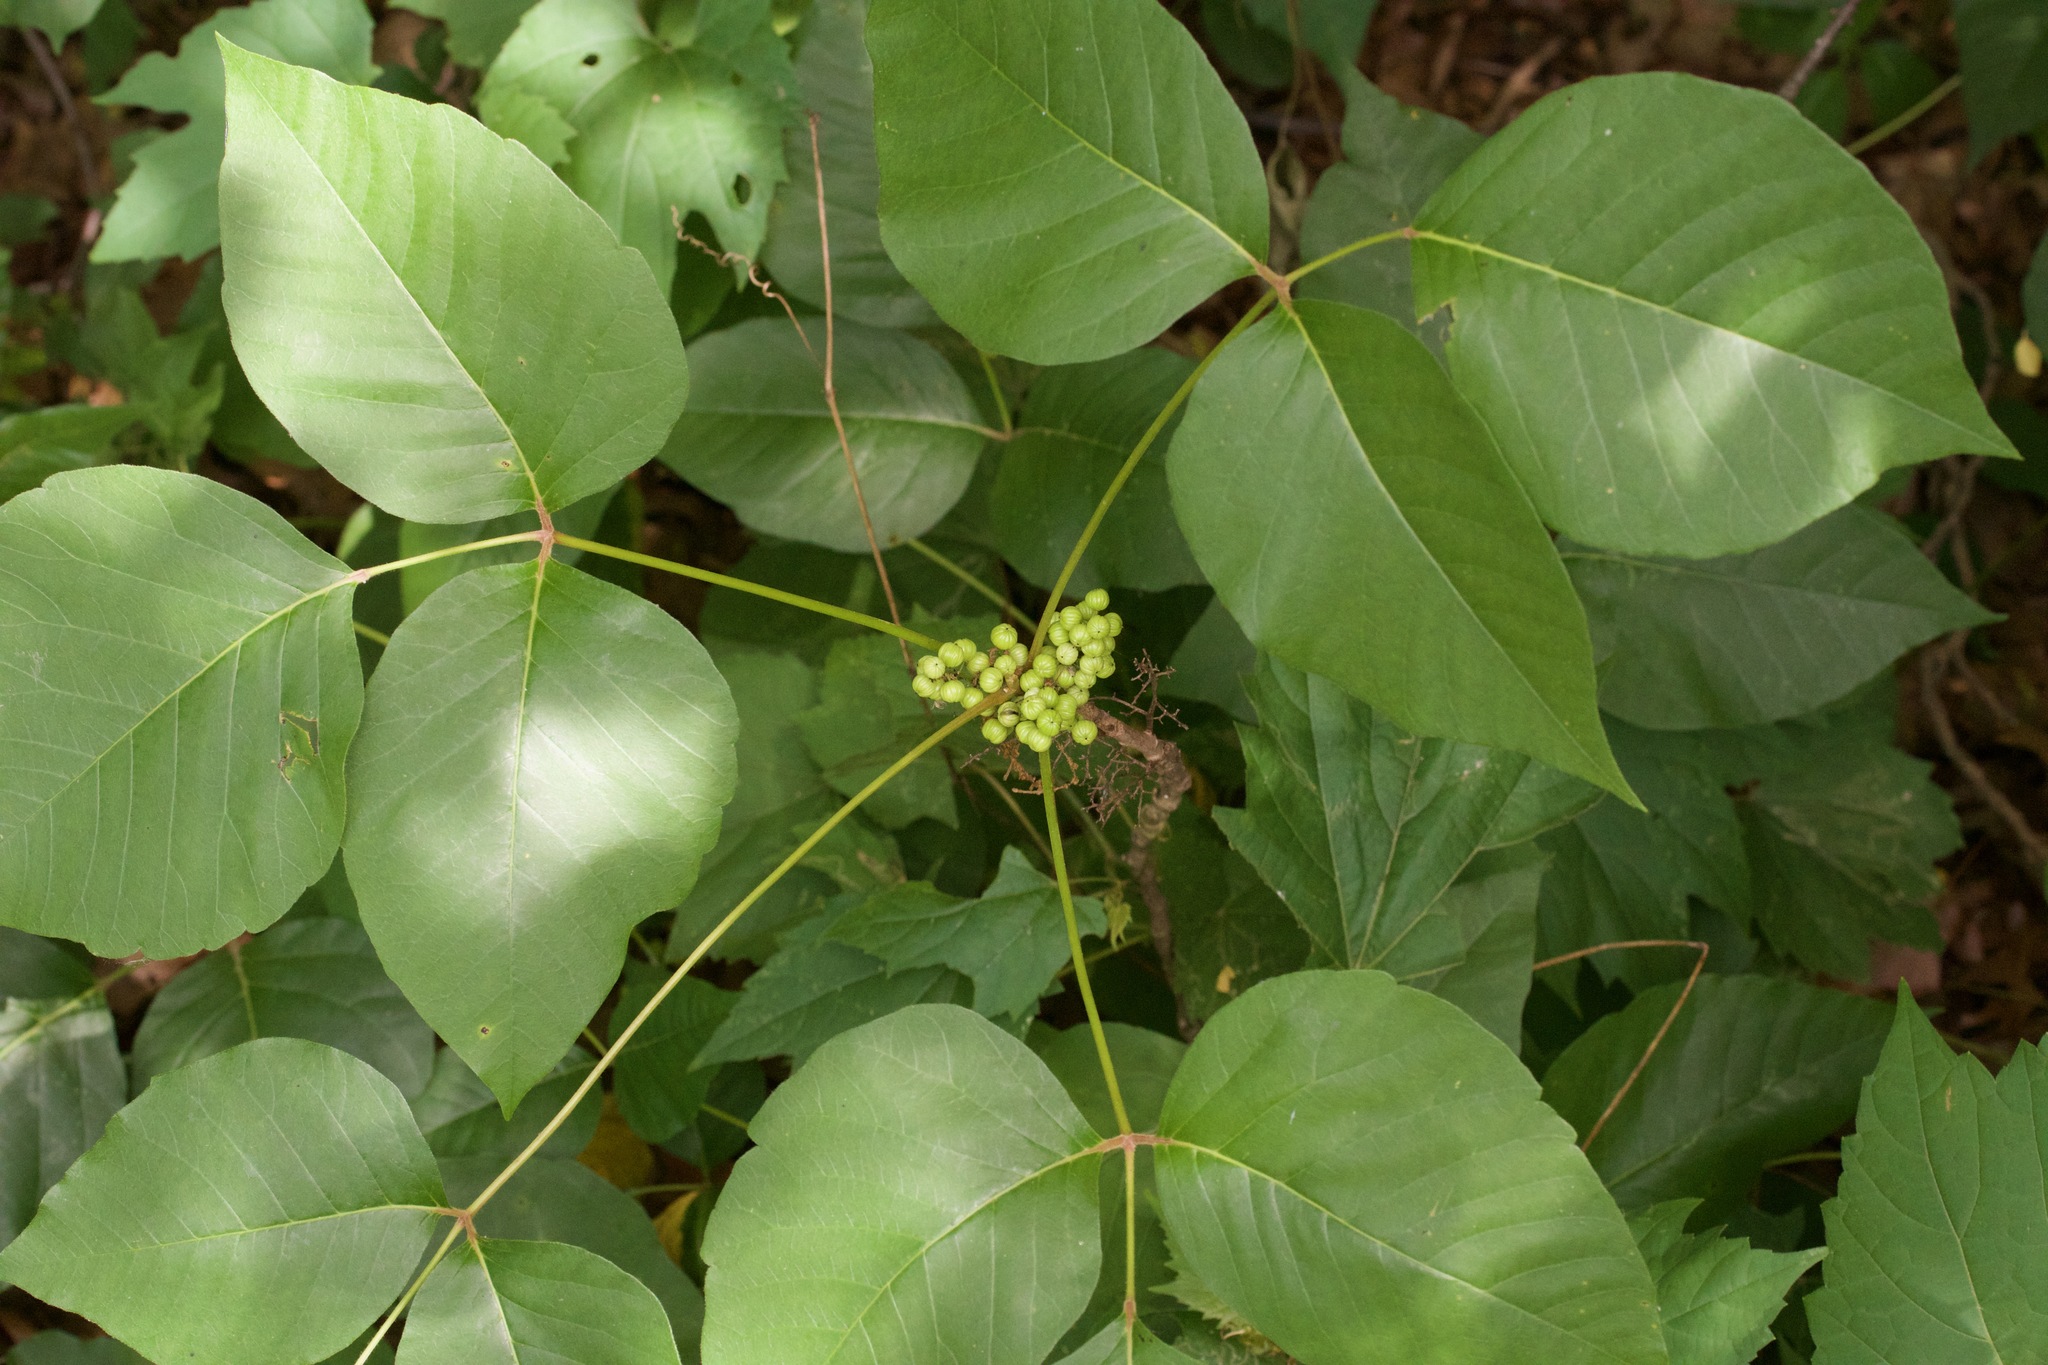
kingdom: Plantae
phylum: Tracheophyta
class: Magnoliopsida
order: Sapindales
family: Anacardiaceae
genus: Toxicodendron
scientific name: Toxicodendron rydbergii
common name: Rydberg's poison-ivy
